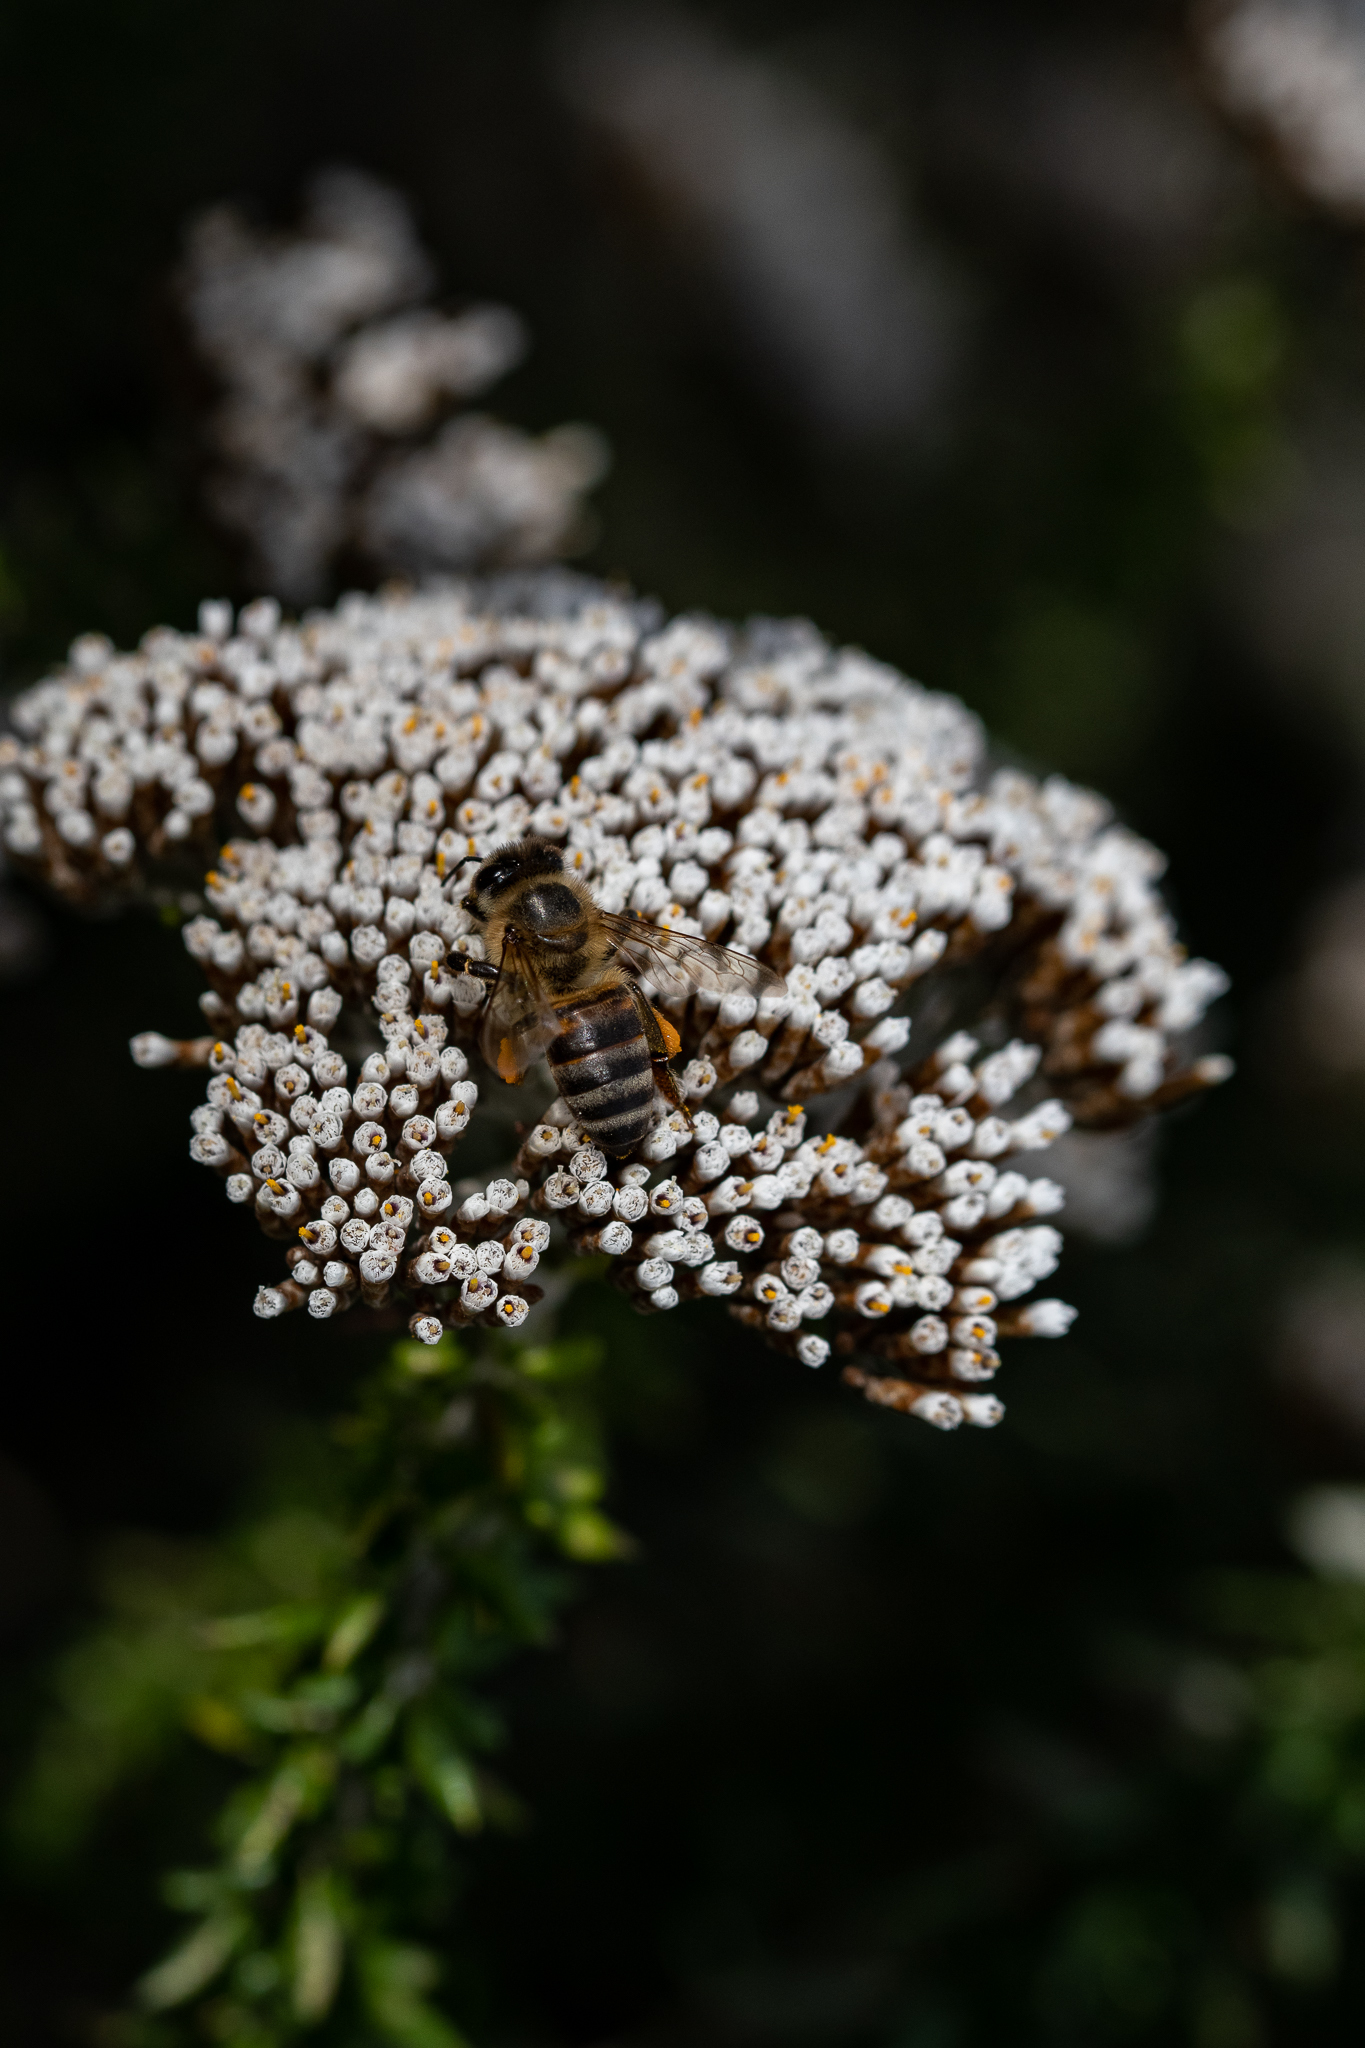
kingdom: Animalia
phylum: Arthropoda
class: Insecta
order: Hymenoptera
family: Apidae
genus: Apis
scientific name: Apis mellifera
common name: Honey bee
